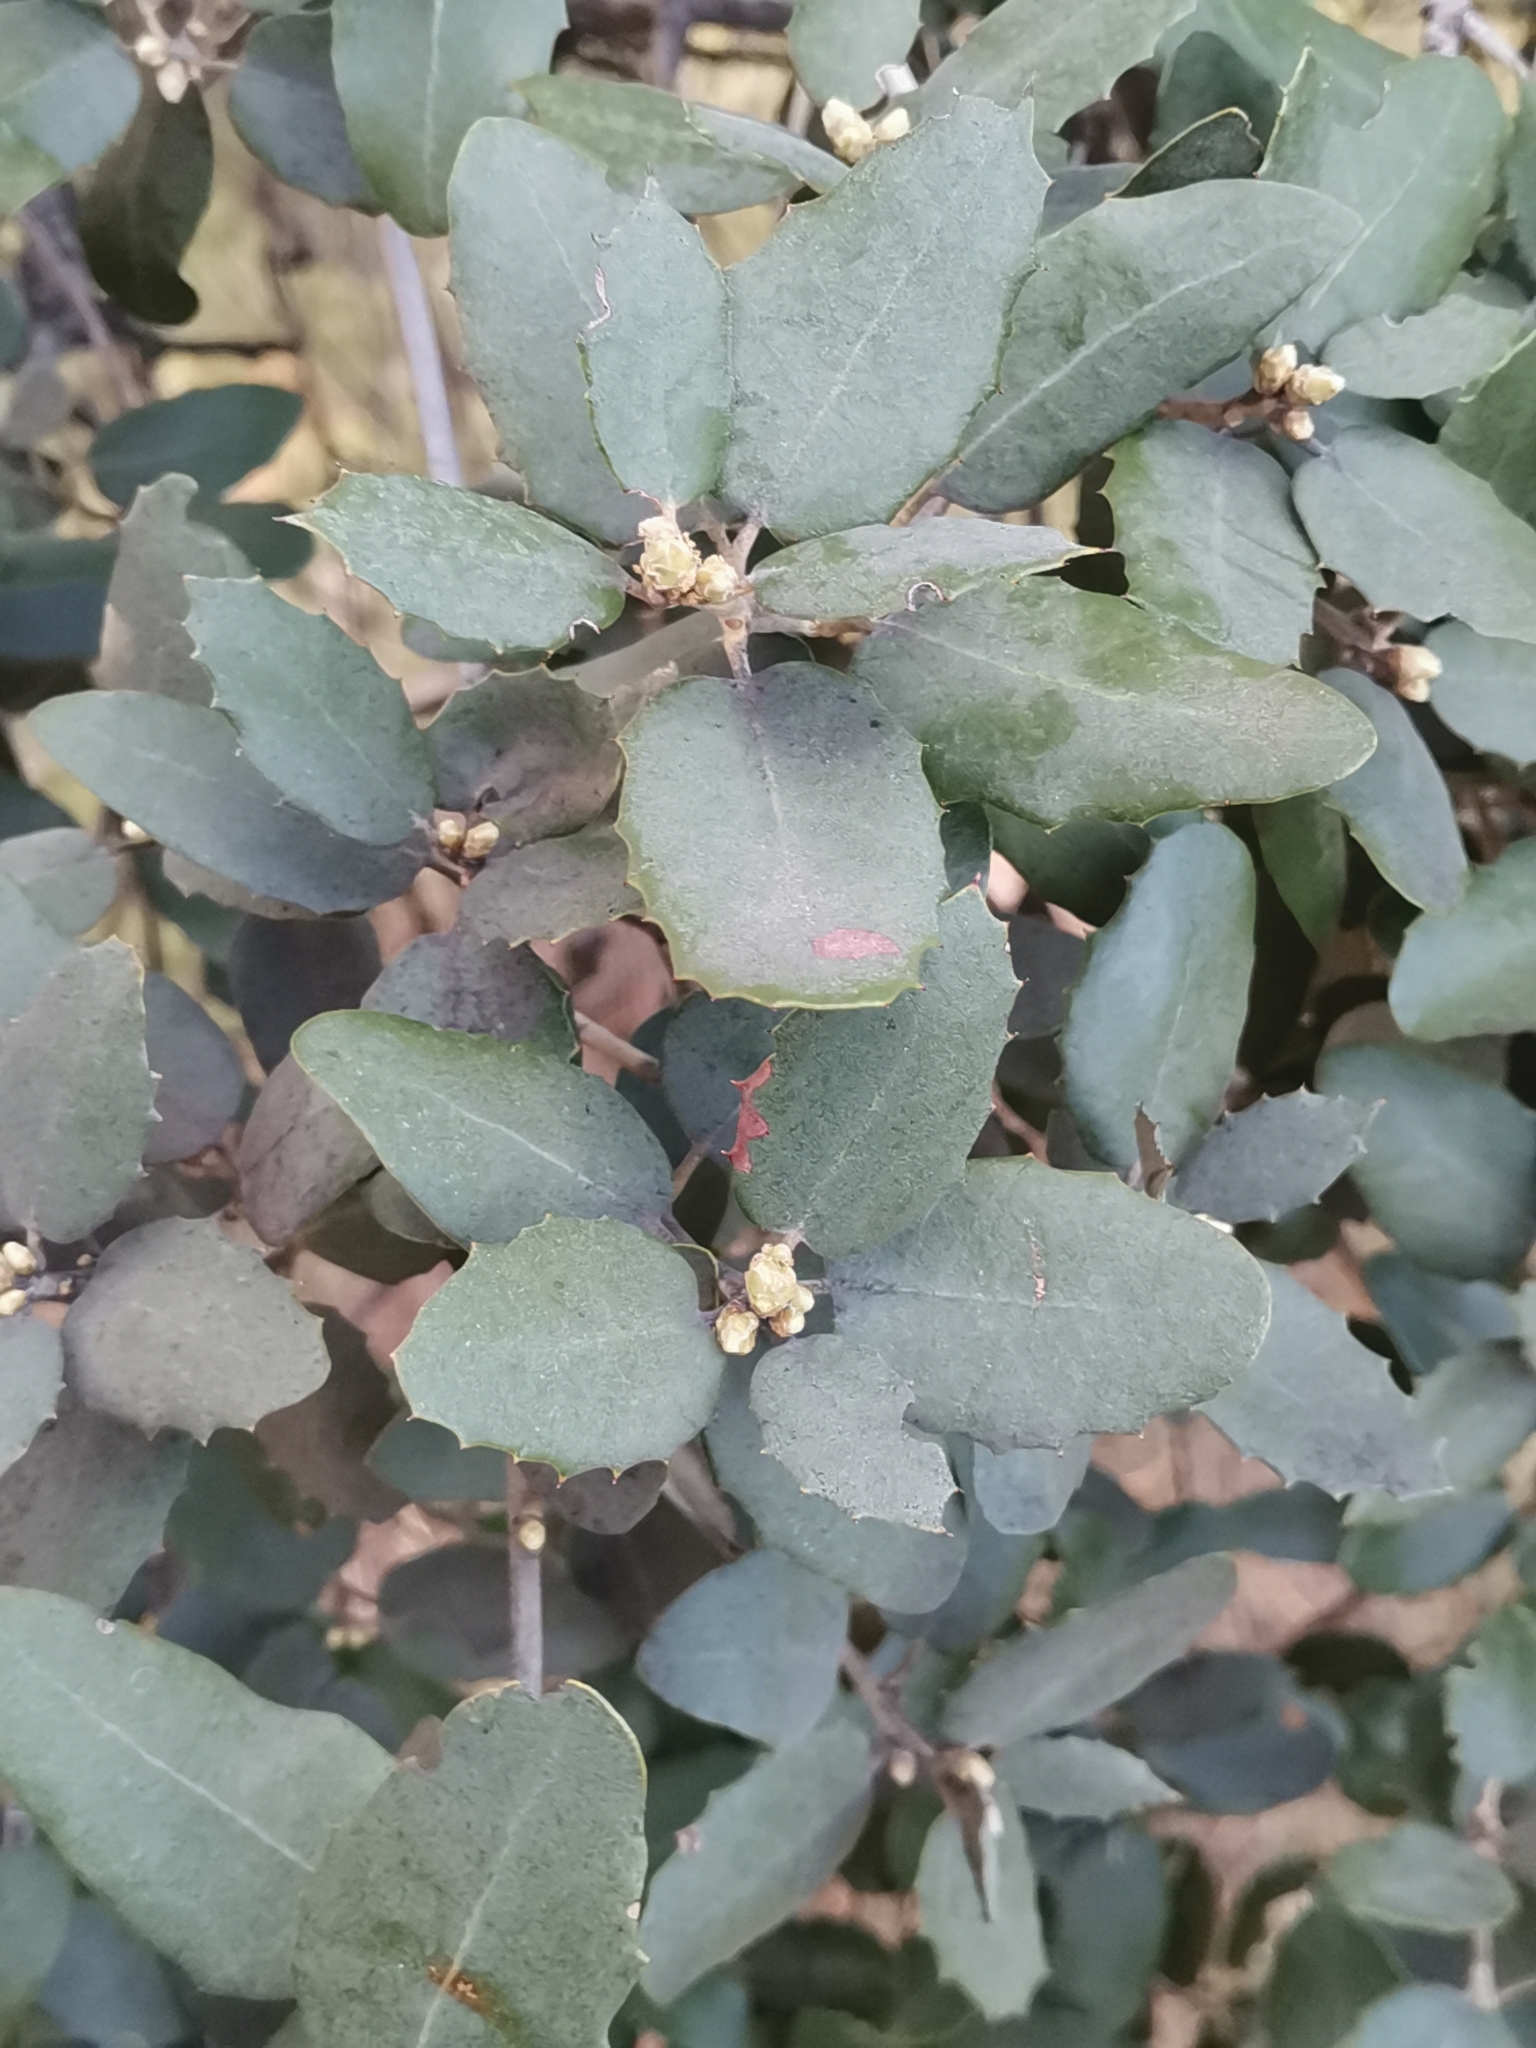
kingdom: Plantae
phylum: Tracheophyta
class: Magnoliopsida
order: Fagales
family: Fagaceae
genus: Quercus
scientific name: Quercus rotundifolia
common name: Holm oak
